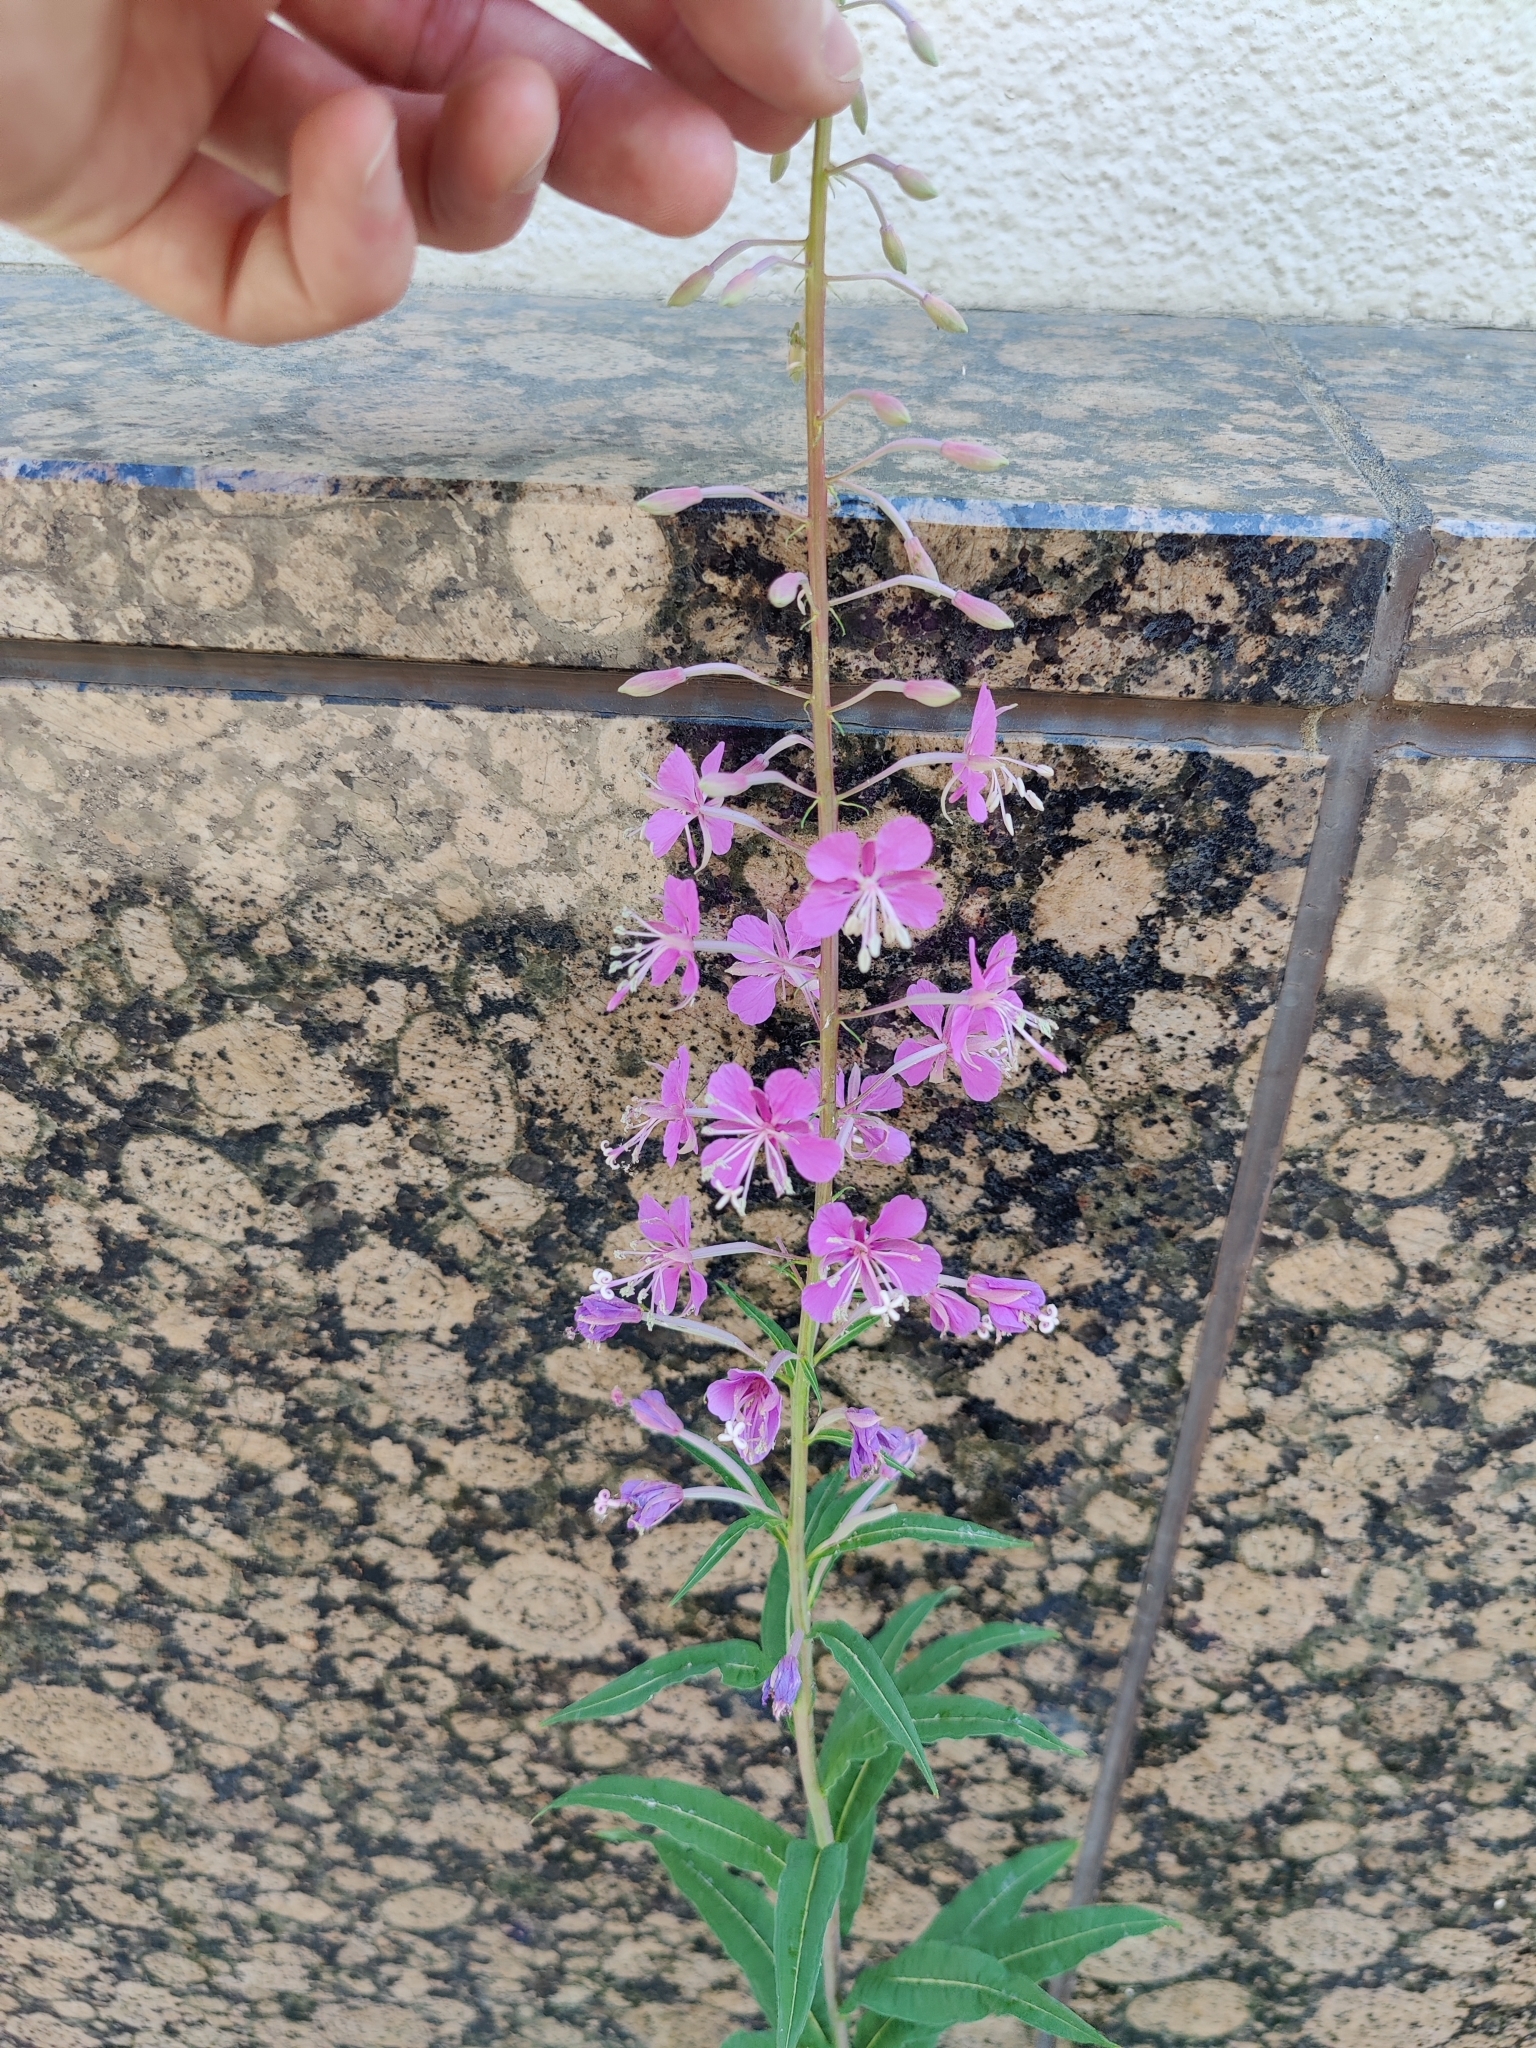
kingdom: Plantae
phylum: Tracheophyta
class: Magnoliopsida
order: Myrtales
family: Onagraceae
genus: Chamaenerion
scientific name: Chamaenerion angustifolium
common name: Fireweed
